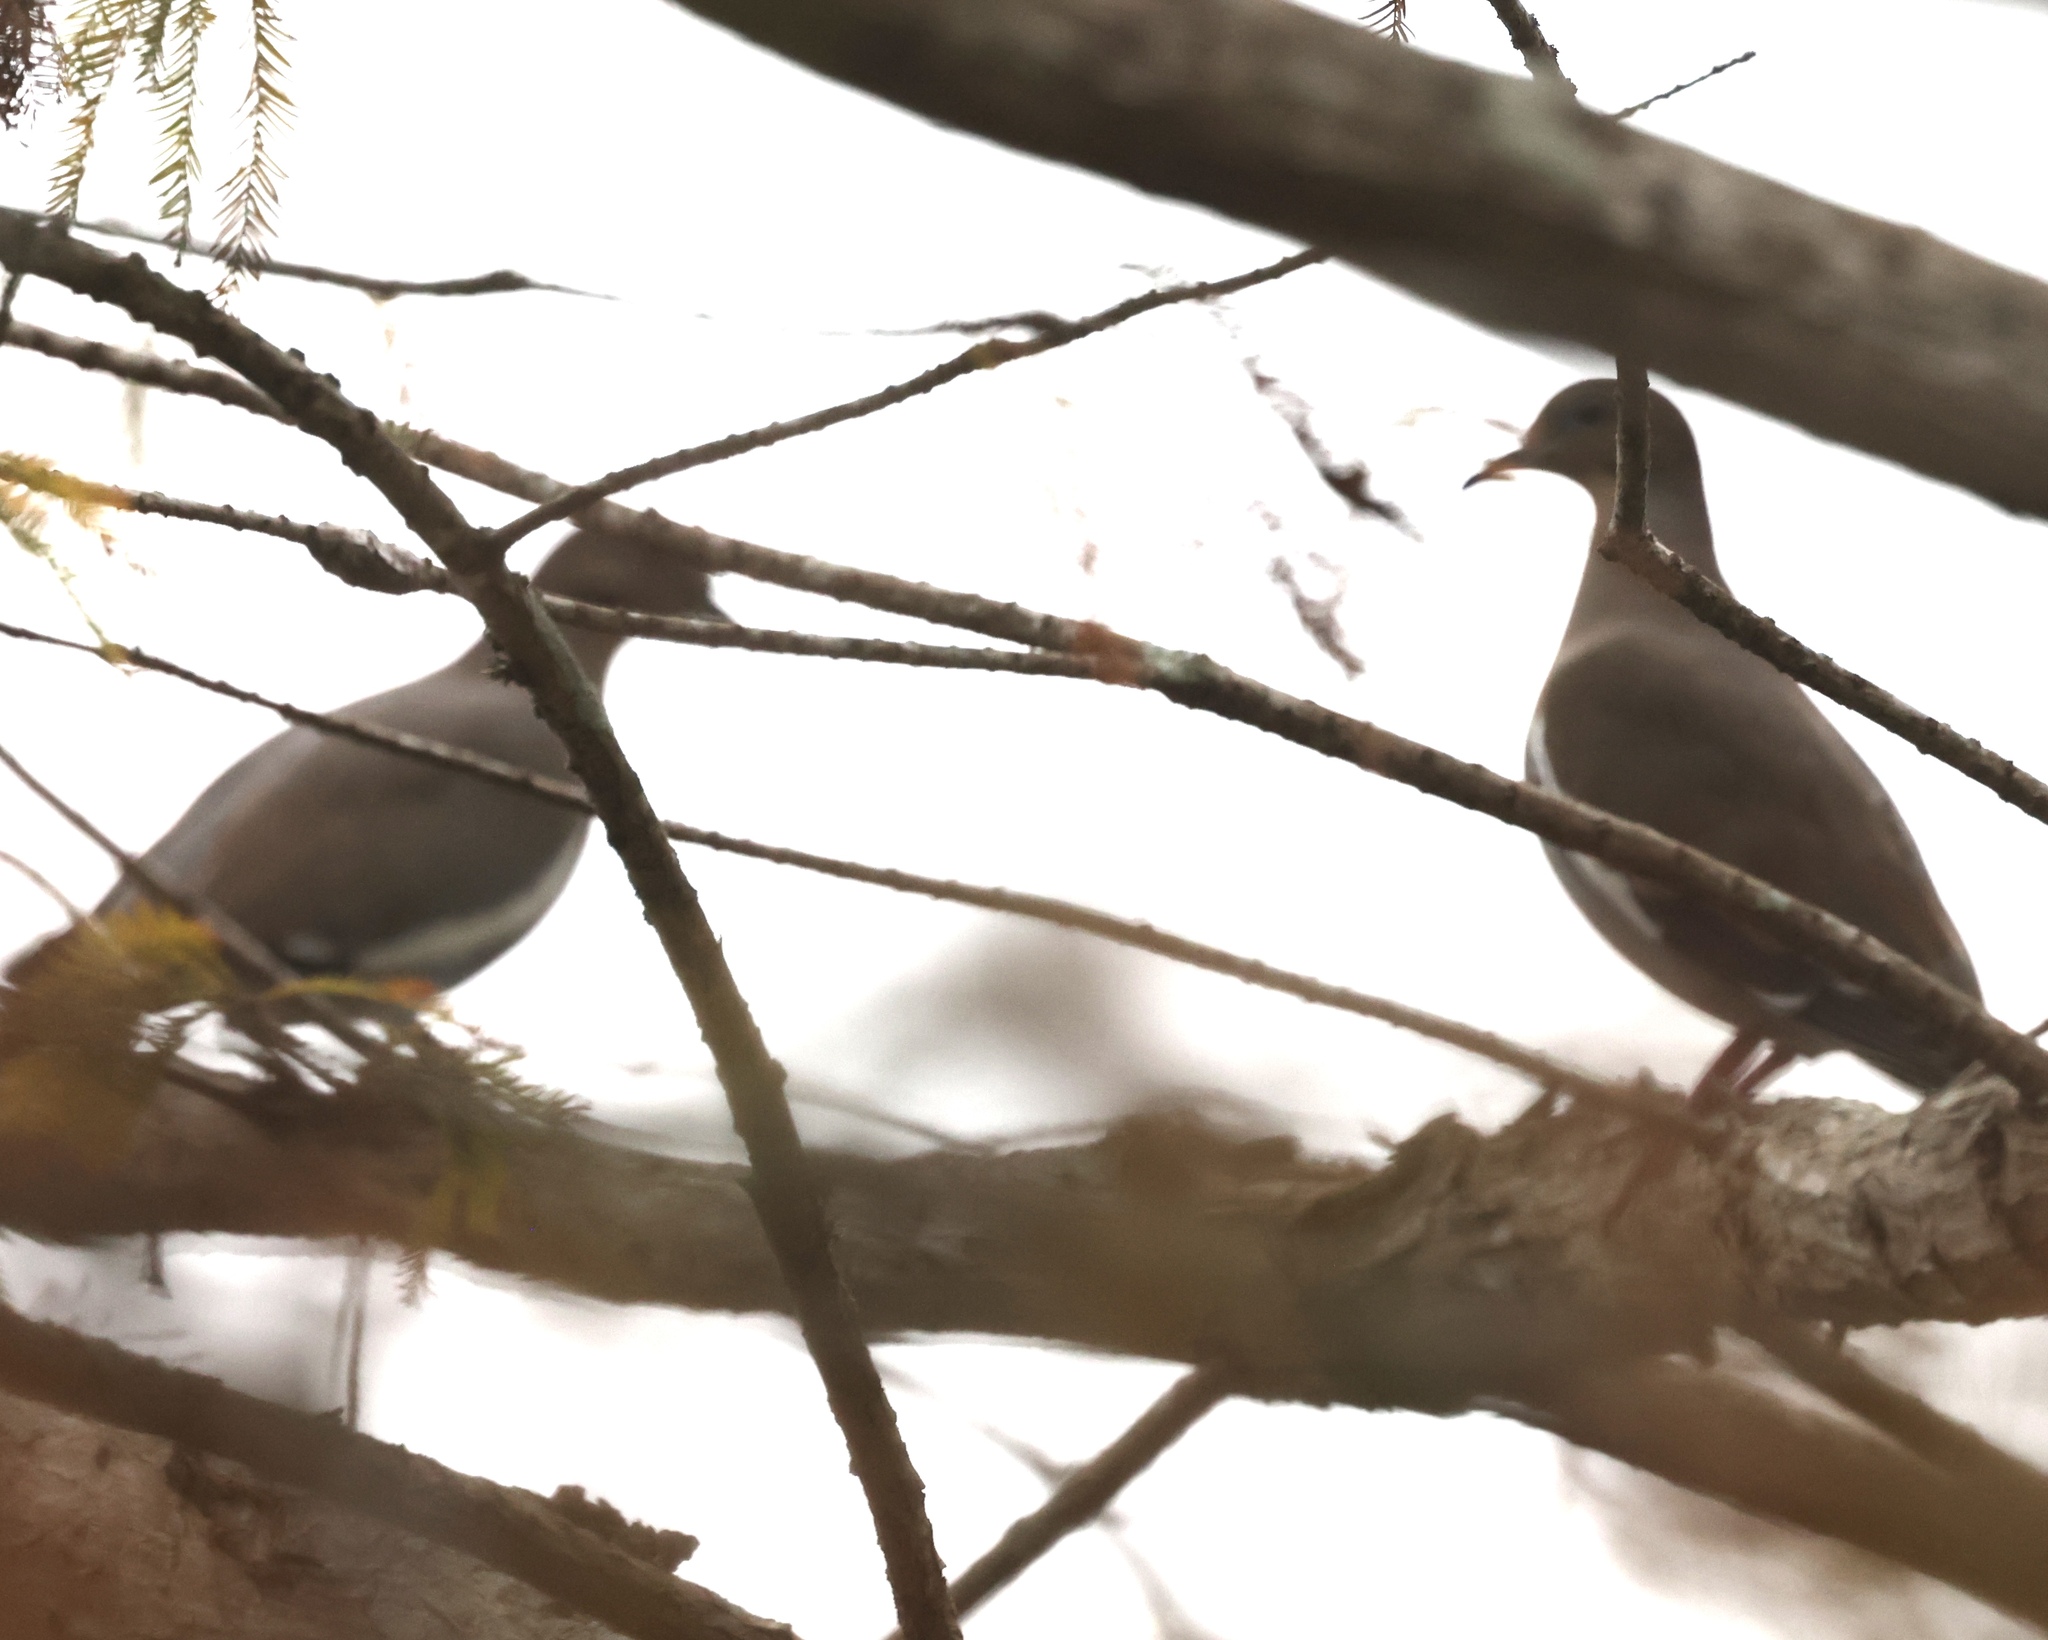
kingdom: Animalia
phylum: Chordata
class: Aves
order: Columbiformes
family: Columbidae
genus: Zenaida
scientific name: Zenaida asiatica
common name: White-winged dove
